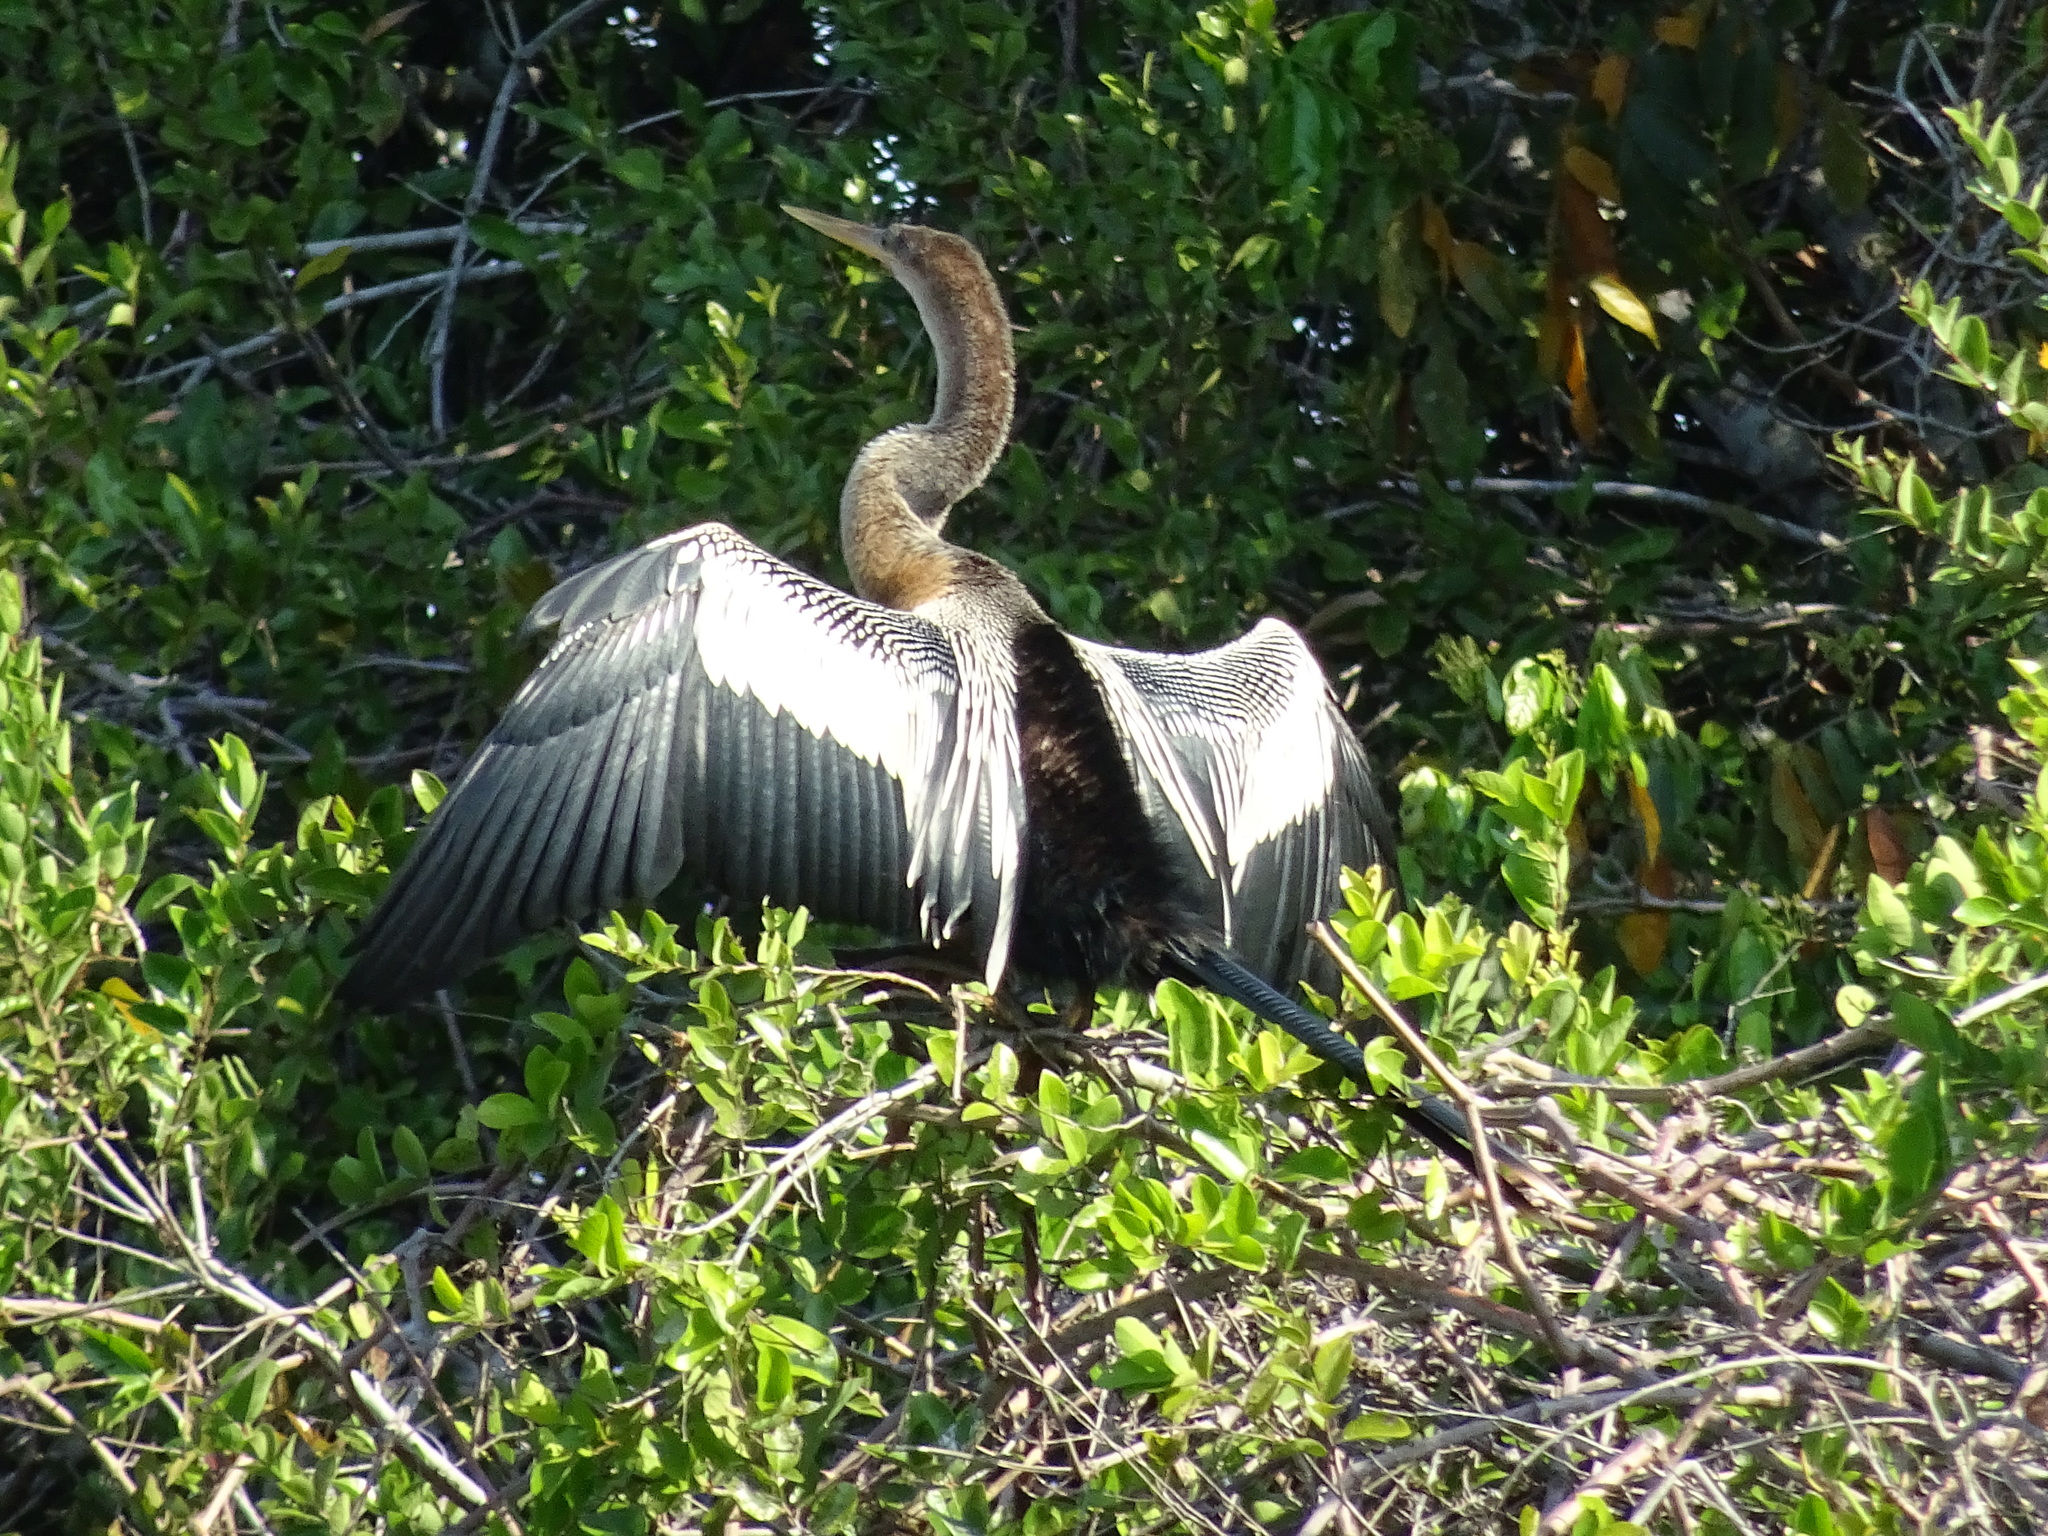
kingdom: Animalia
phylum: Chordata
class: Aves
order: Suliformes
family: Anhingidae
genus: Anhinga
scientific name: Anhinga anhinga
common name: Anhinga
